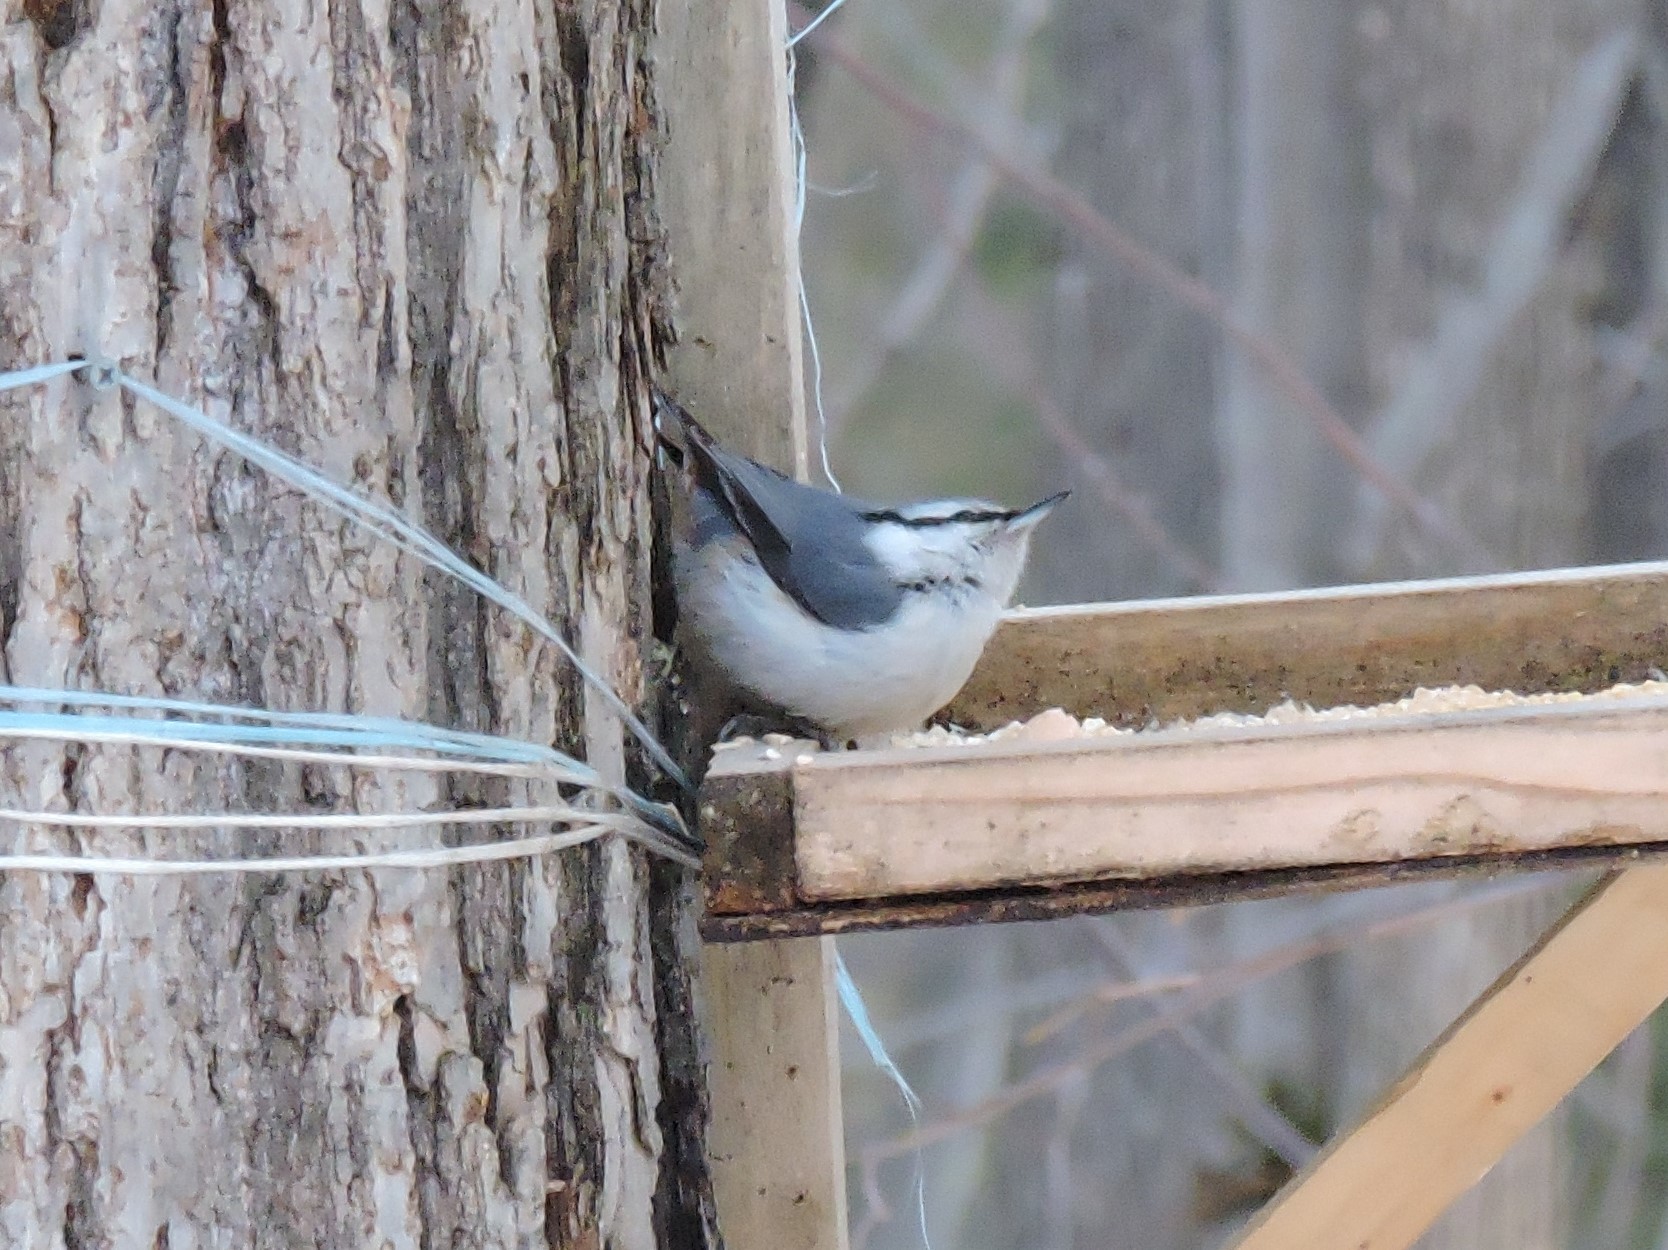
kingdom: Animalia
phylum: Chordata
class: Aves
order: Passeriformes
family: Sittidae
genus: Sitta
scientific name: Sitta europaea
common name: Eurasian nuthatch
